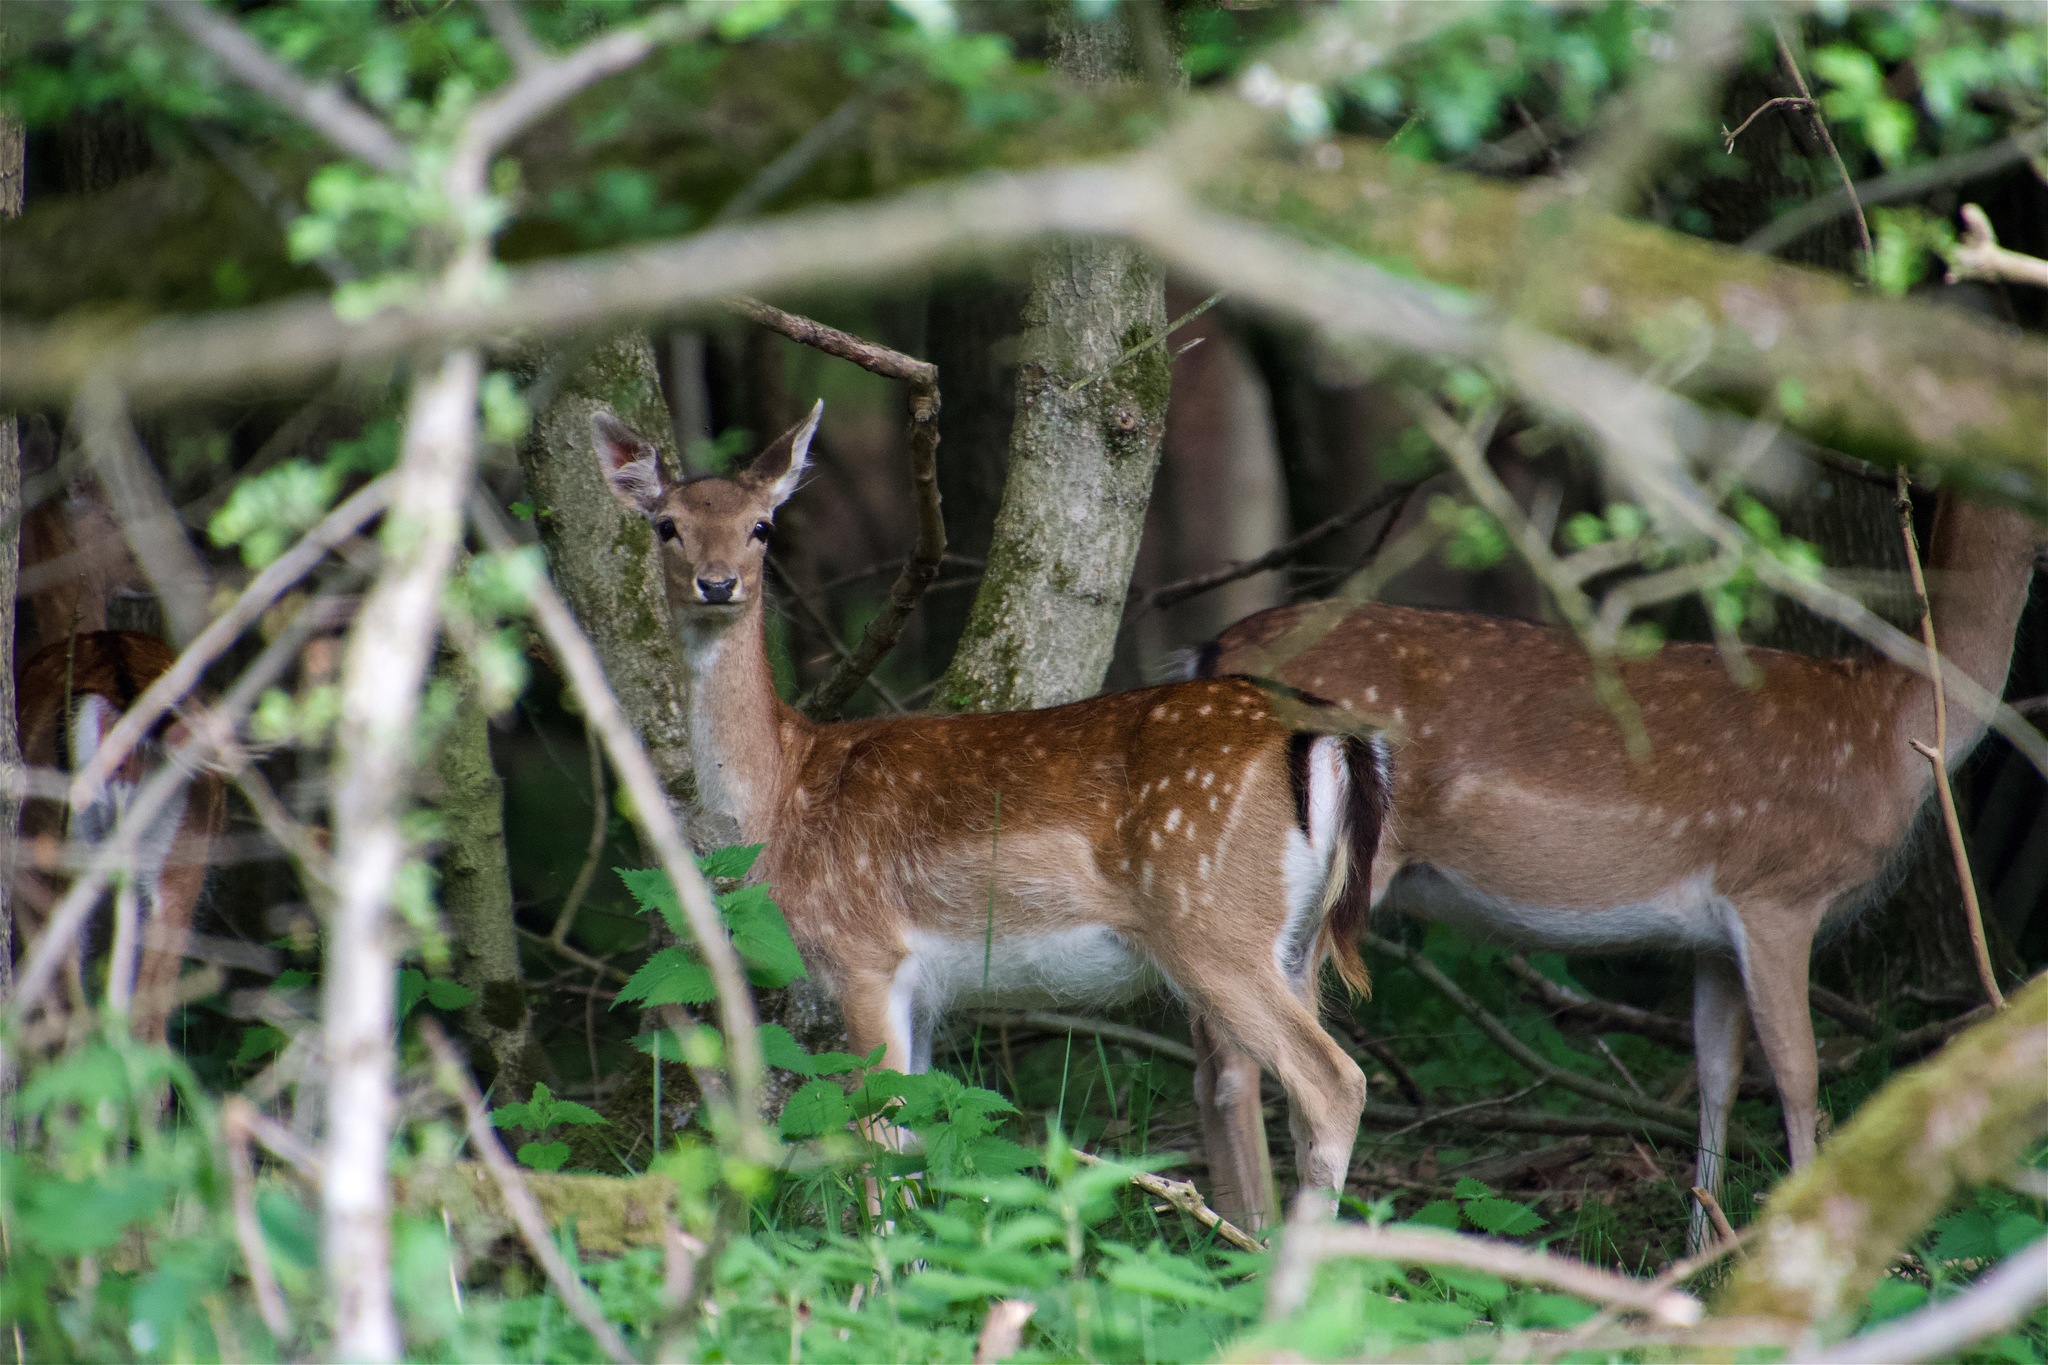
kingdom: Animalia
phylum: Chordata
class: Mammalia
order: Artiodactyla
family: Cervidae
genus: Dama
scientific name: Dama dama
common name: Fallow deer
